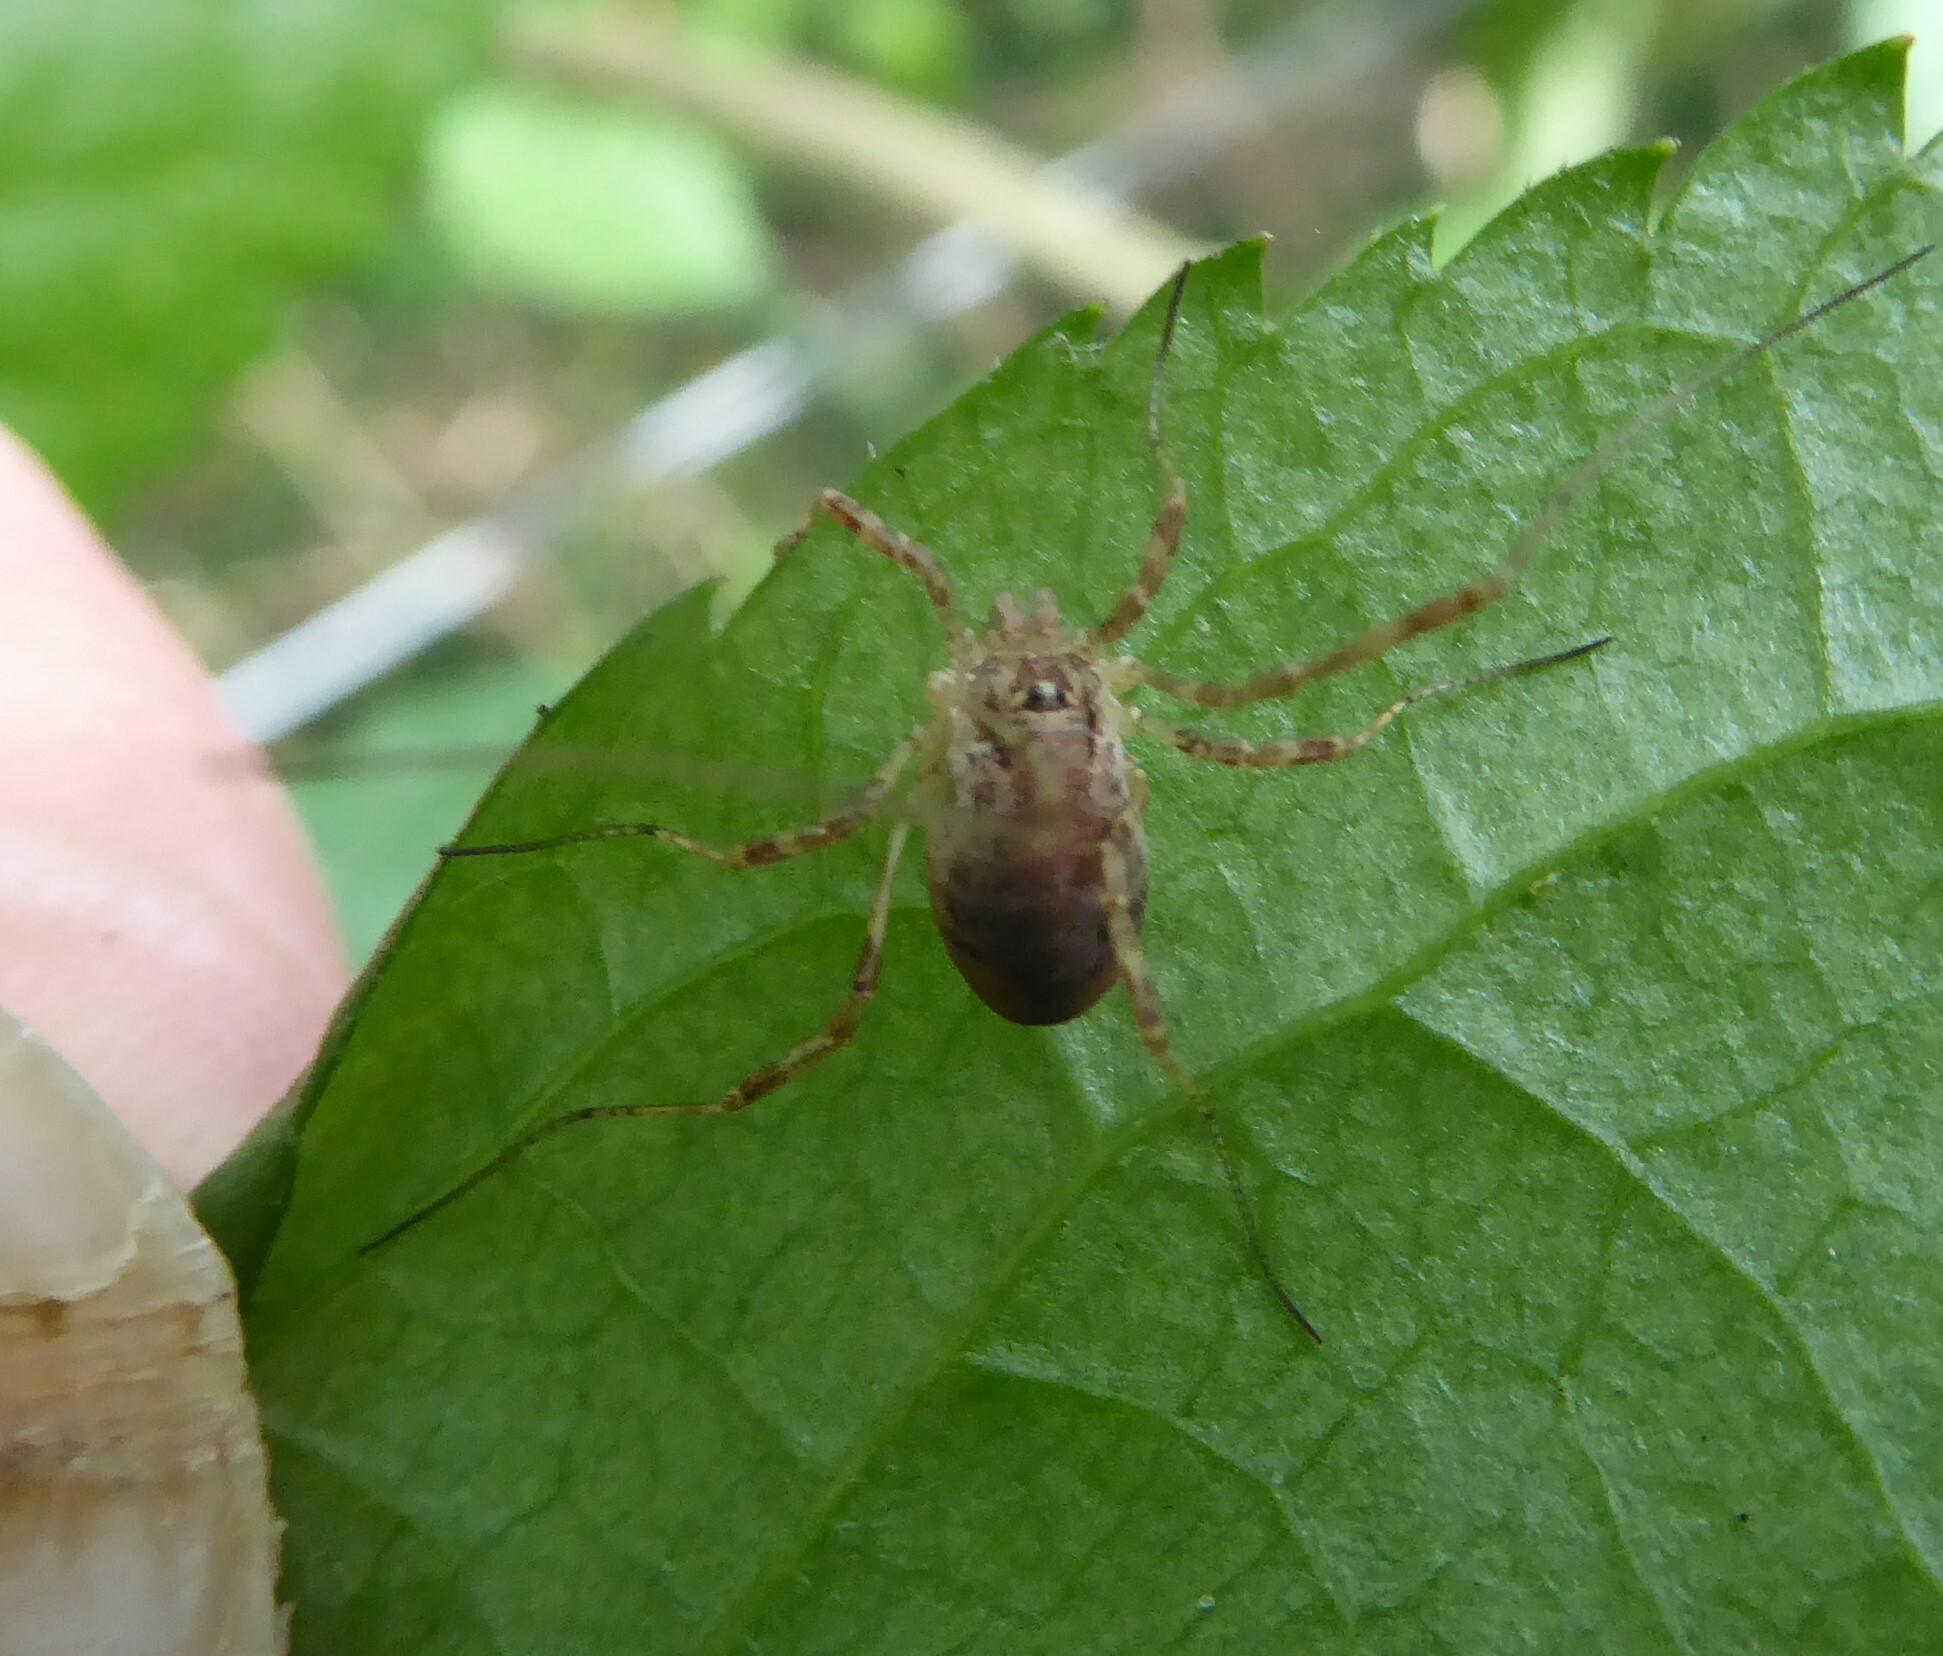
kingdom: Animalia
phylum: Arthropoda
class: Arachnida
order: Opiliones
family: Phalangiidae
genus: Paroligolophus
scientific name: Paroligolophus agrestis
